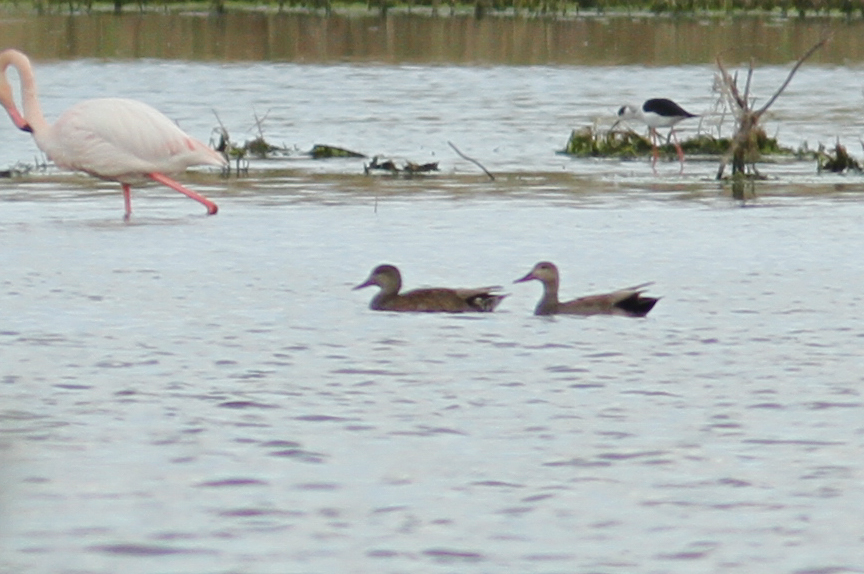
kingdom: Animalia
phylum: Chordata
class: Aves
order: Anseriformes
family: Anatidae
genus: Mareca
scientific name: Mareca strepera
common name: Gadwall
